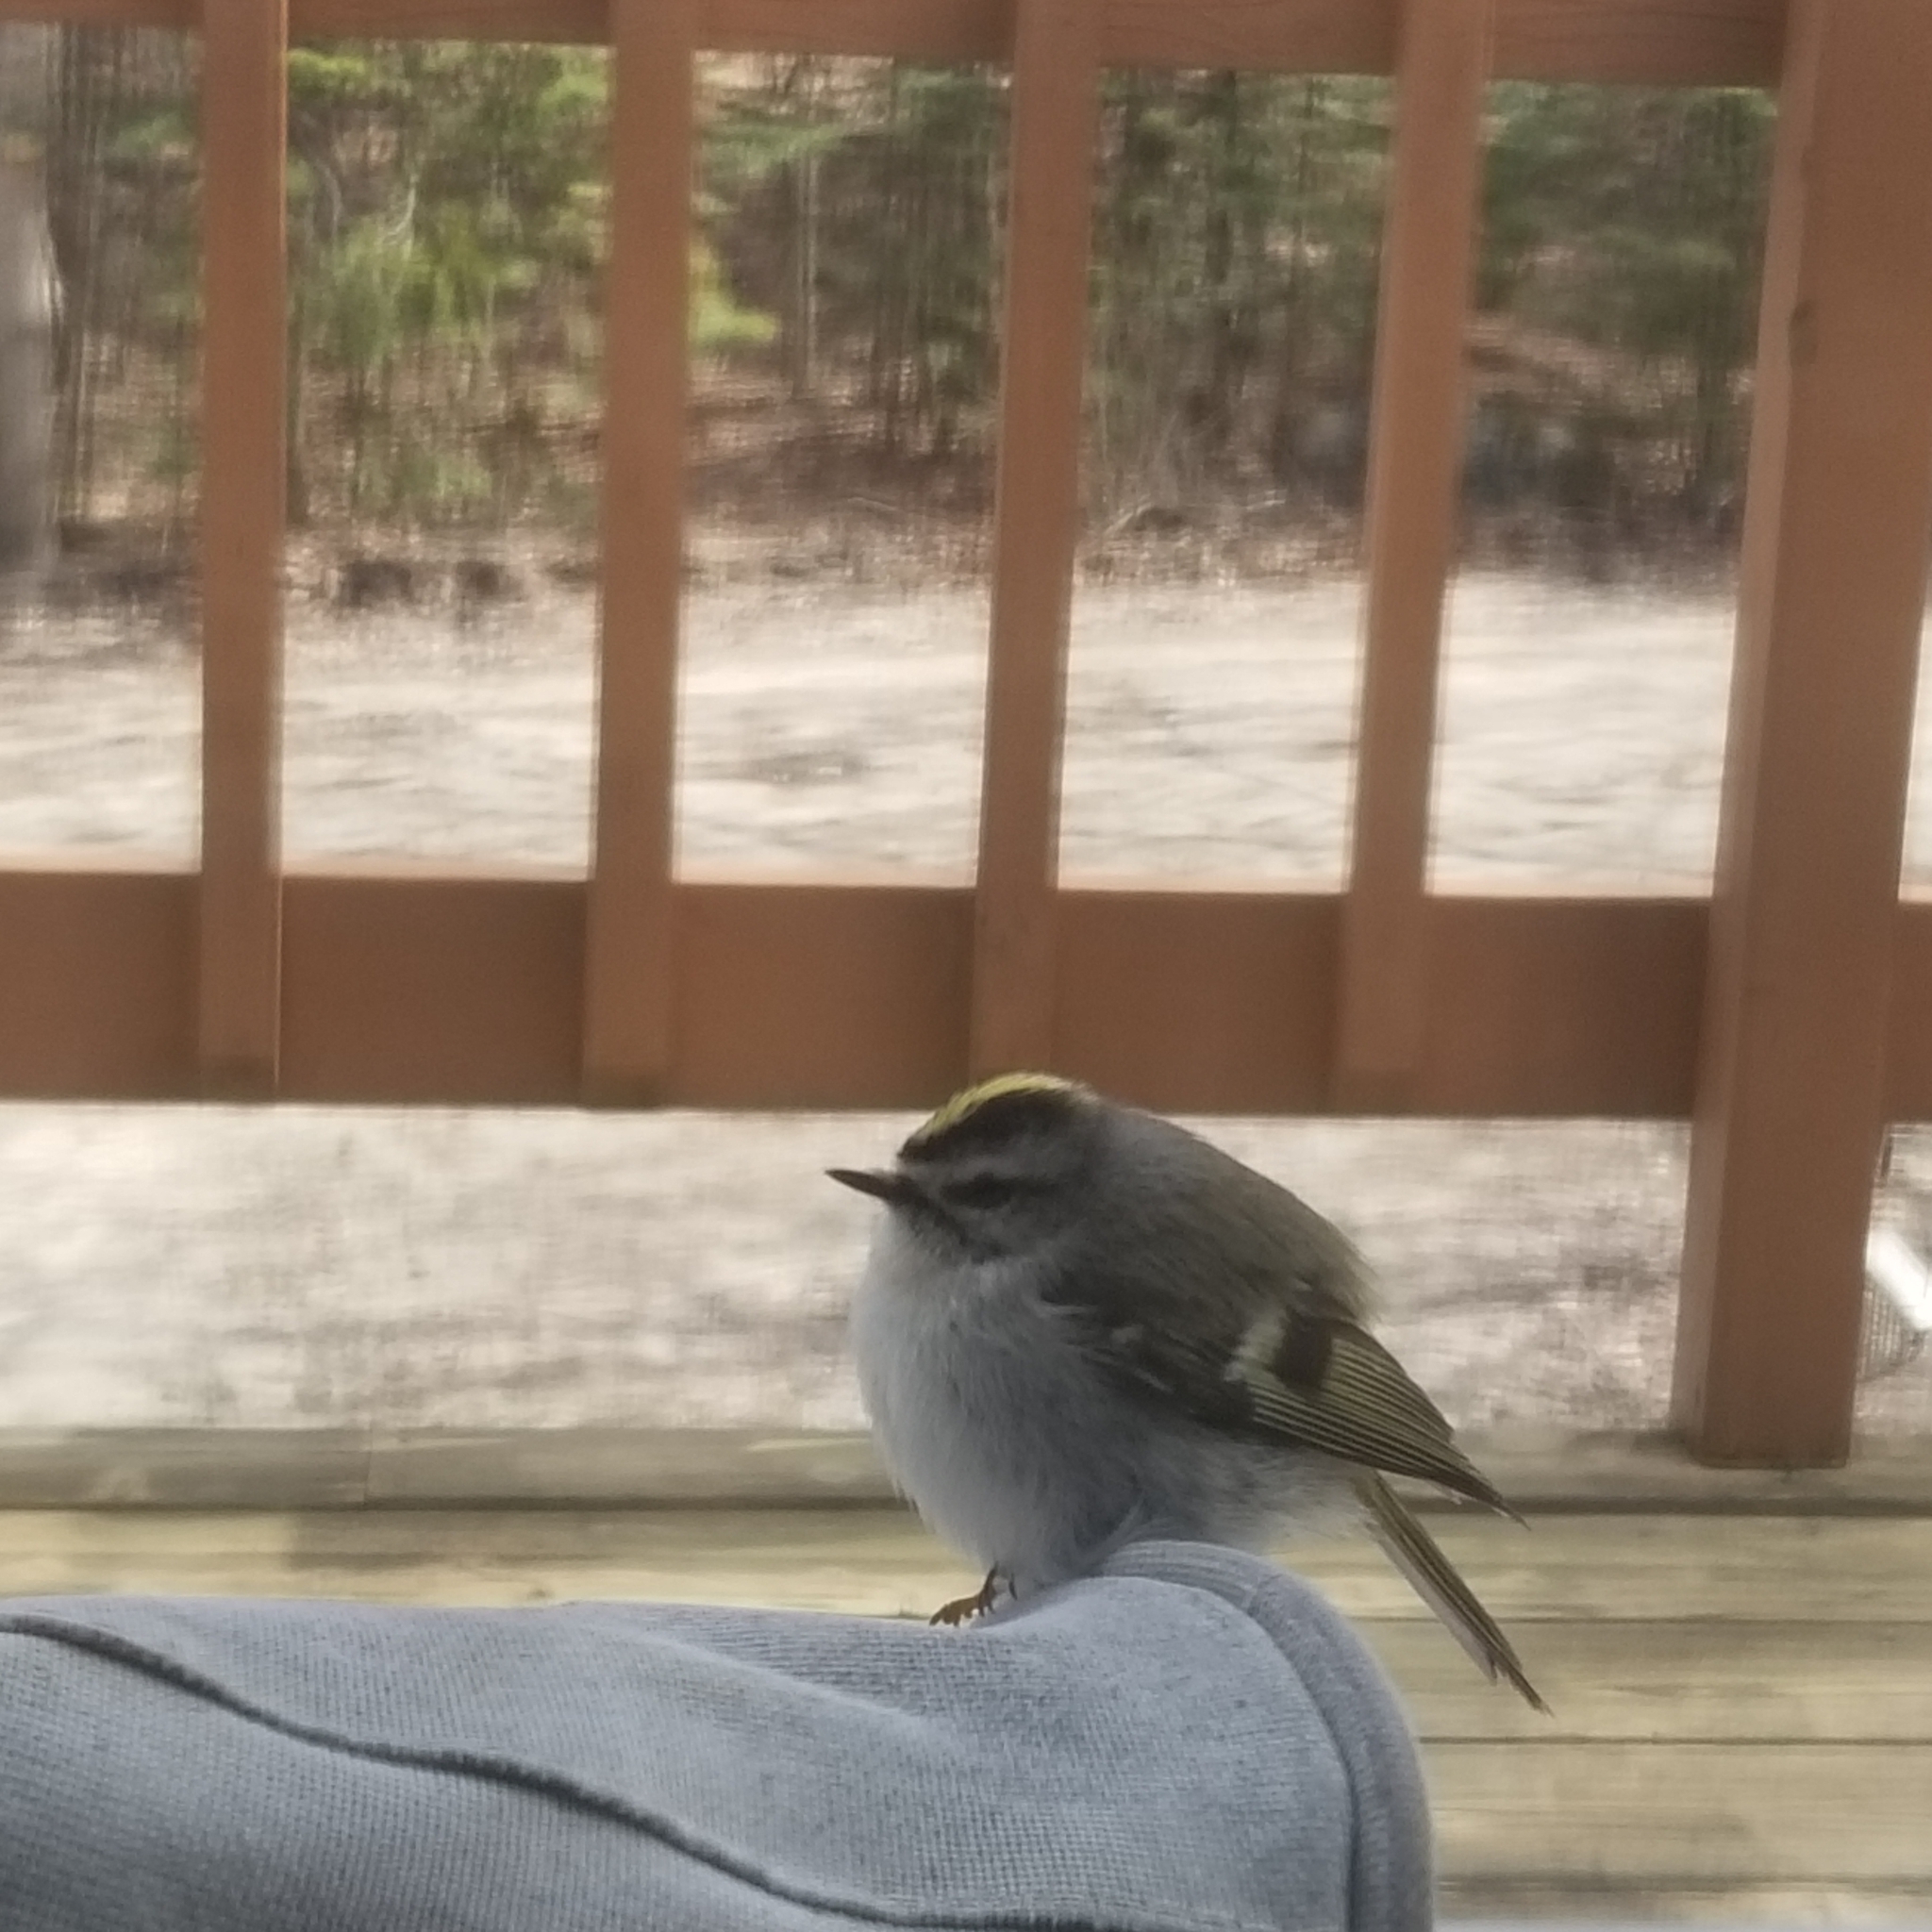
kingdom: Animalia
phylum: Chordata
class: Aves
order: Passeriformes
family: Regulidae
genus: Regulus
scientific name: Regulus satrapa
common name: Golden-crowned kinglet
